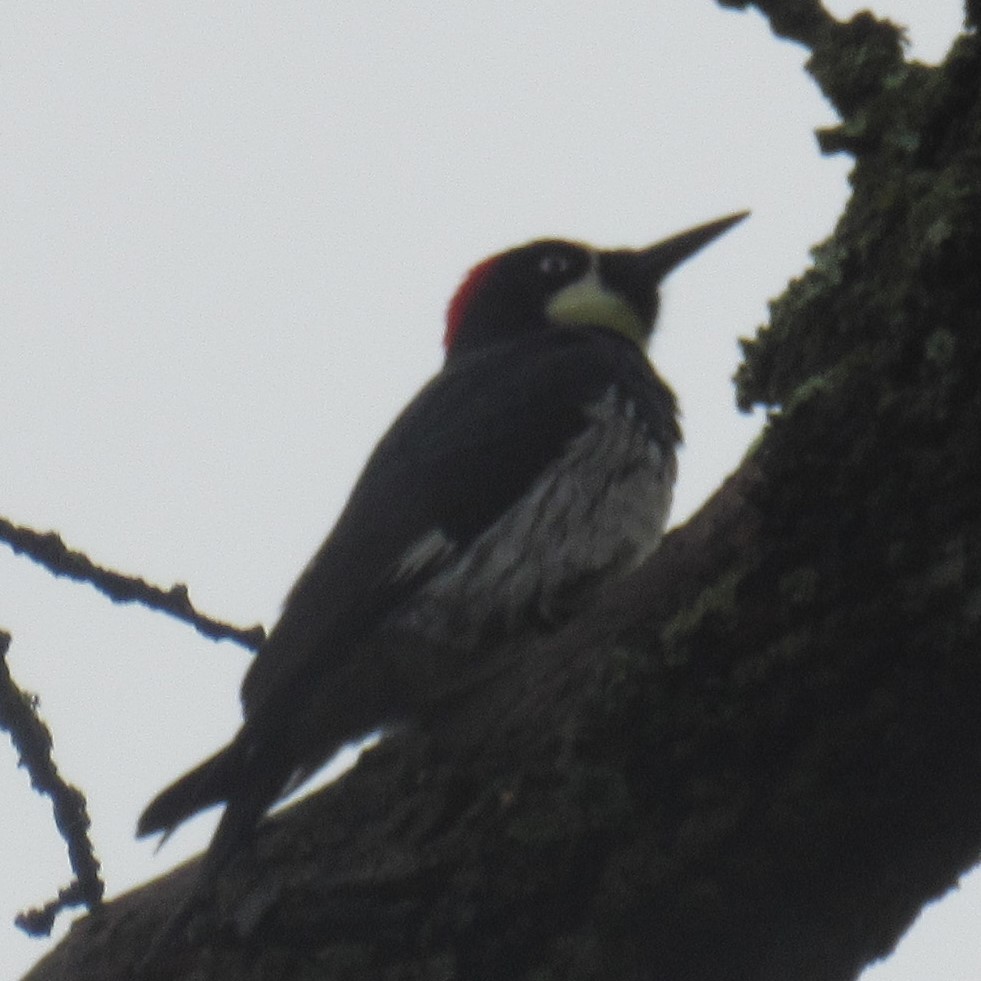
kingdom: Animalia
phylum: Chordata
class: Aves
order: Piciformes
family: Picidae
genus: Melanerpes
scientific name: Melanerpes formicivorus
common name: Acorn woodpecker
